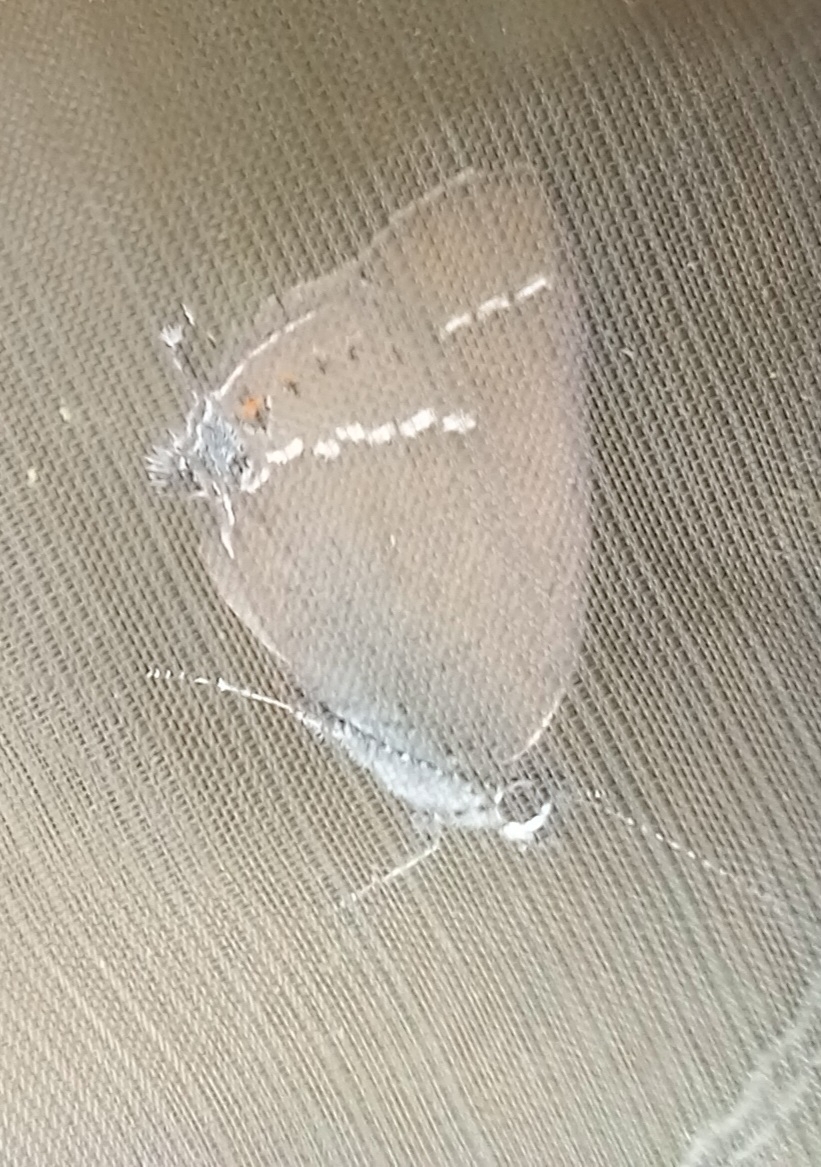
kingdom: Animalia
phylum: Arthropoda
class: Insecta
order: Lepidoptera
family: Lycaenidae
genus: Tuttiola
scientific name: Tuttiola spini
